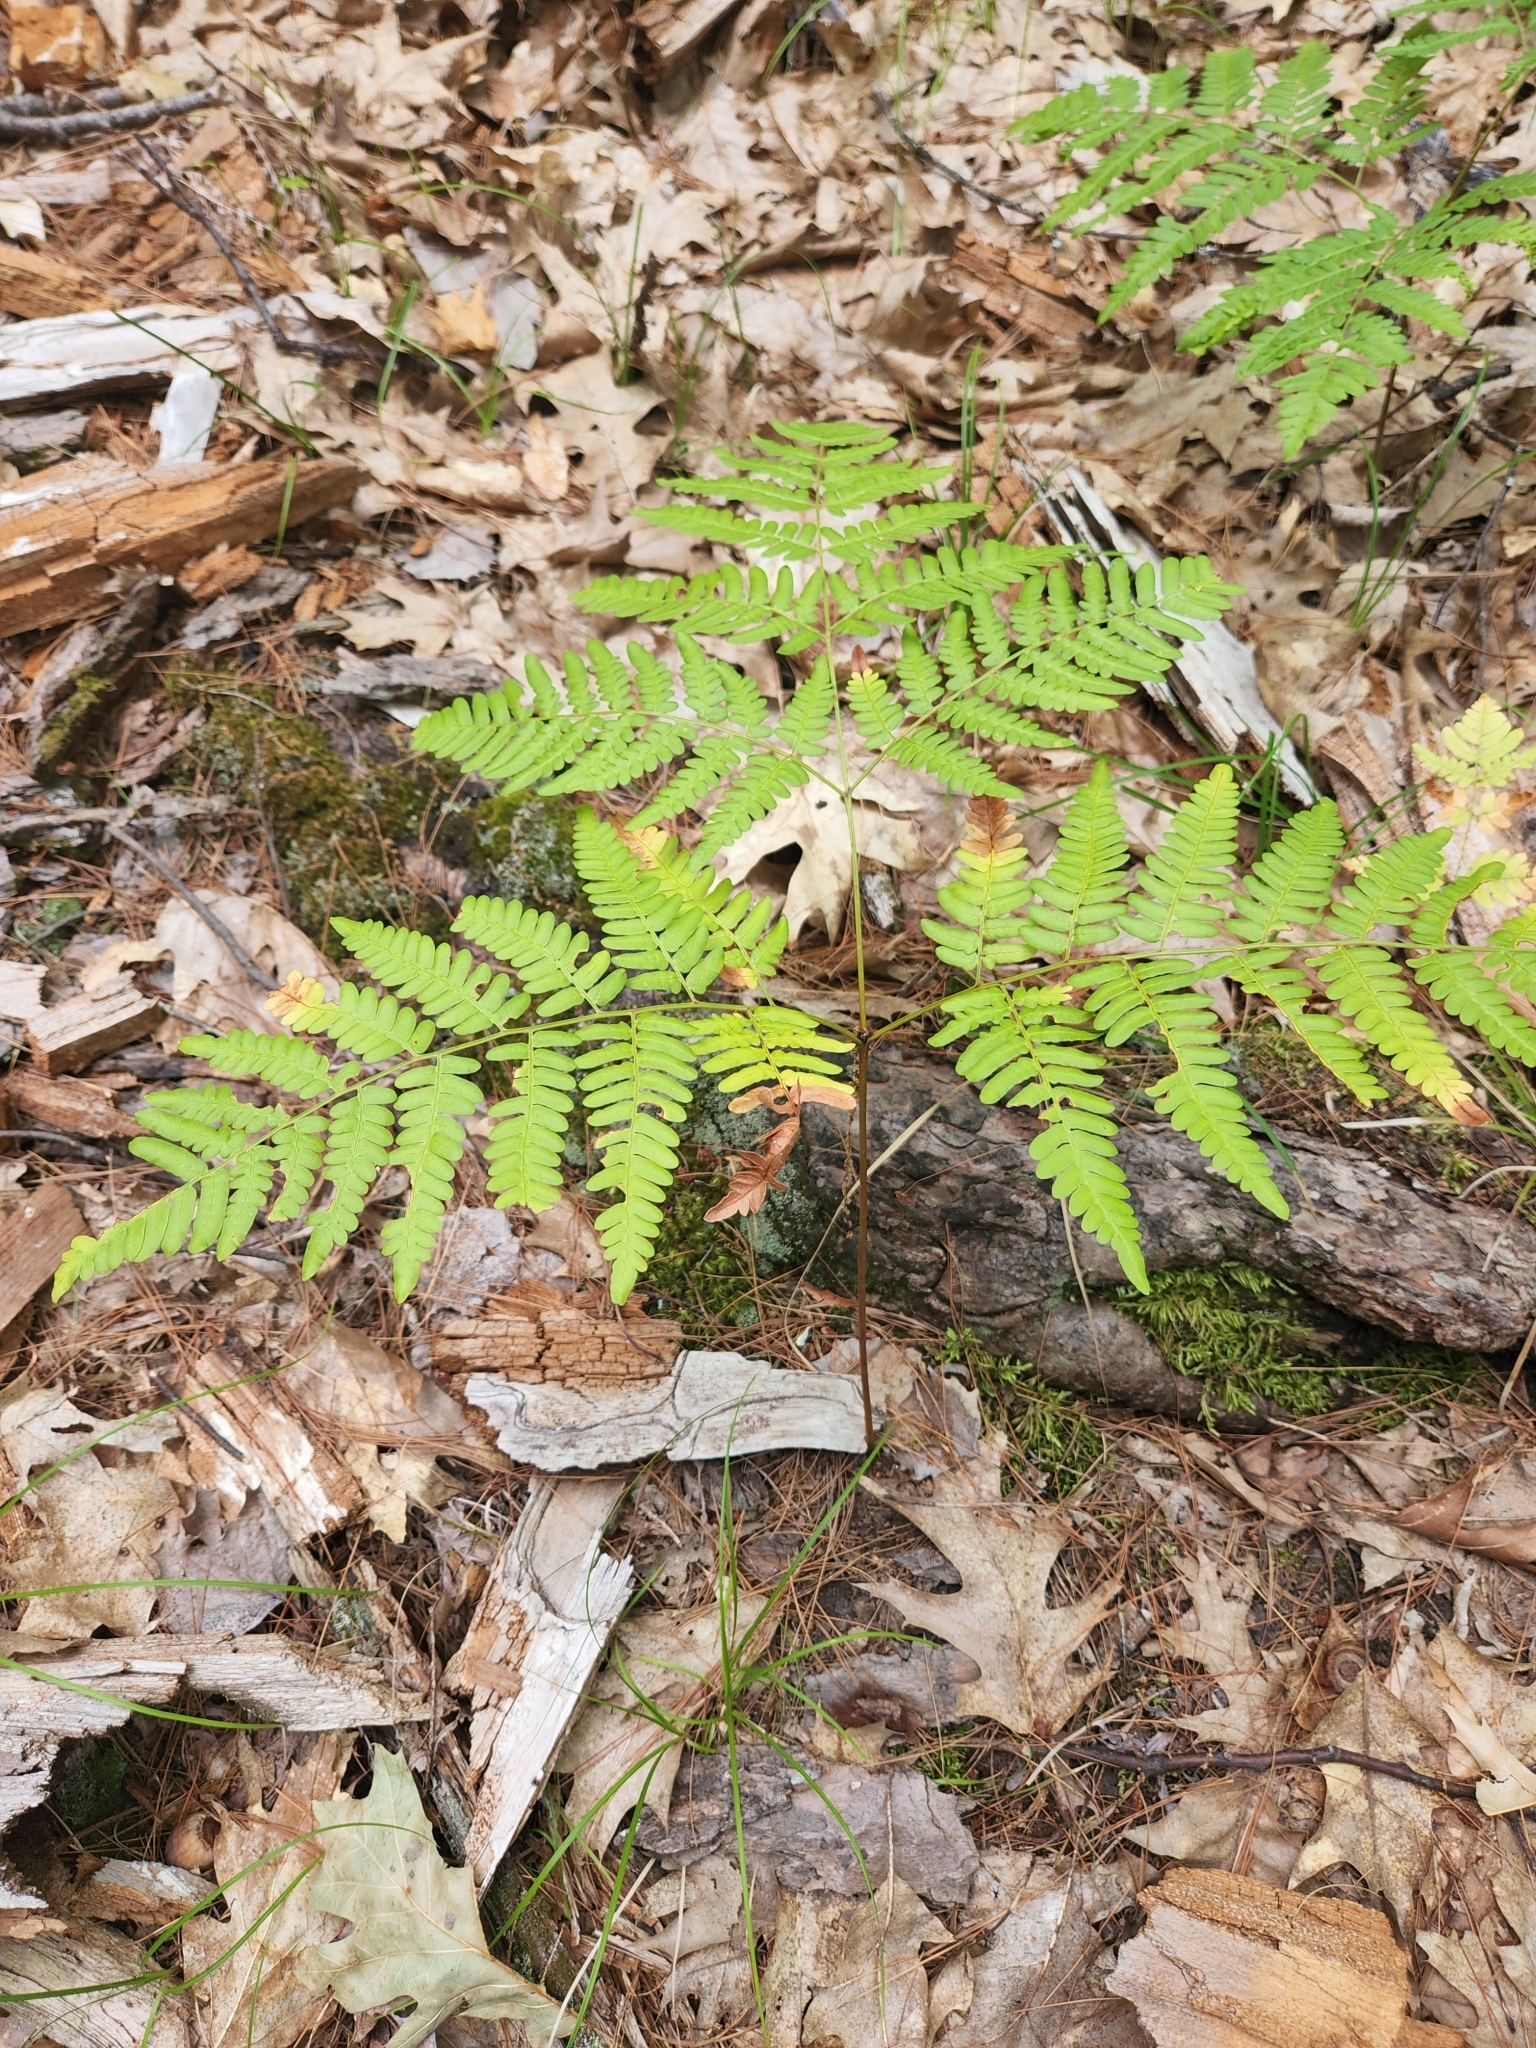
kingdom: Plantae
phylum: Tracheophyta
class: Polypodiopsida
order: Polypodiales
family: Dennstaedtiaceae
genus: Pteridium
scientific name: Pteridium aquilinum
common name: Bracken
